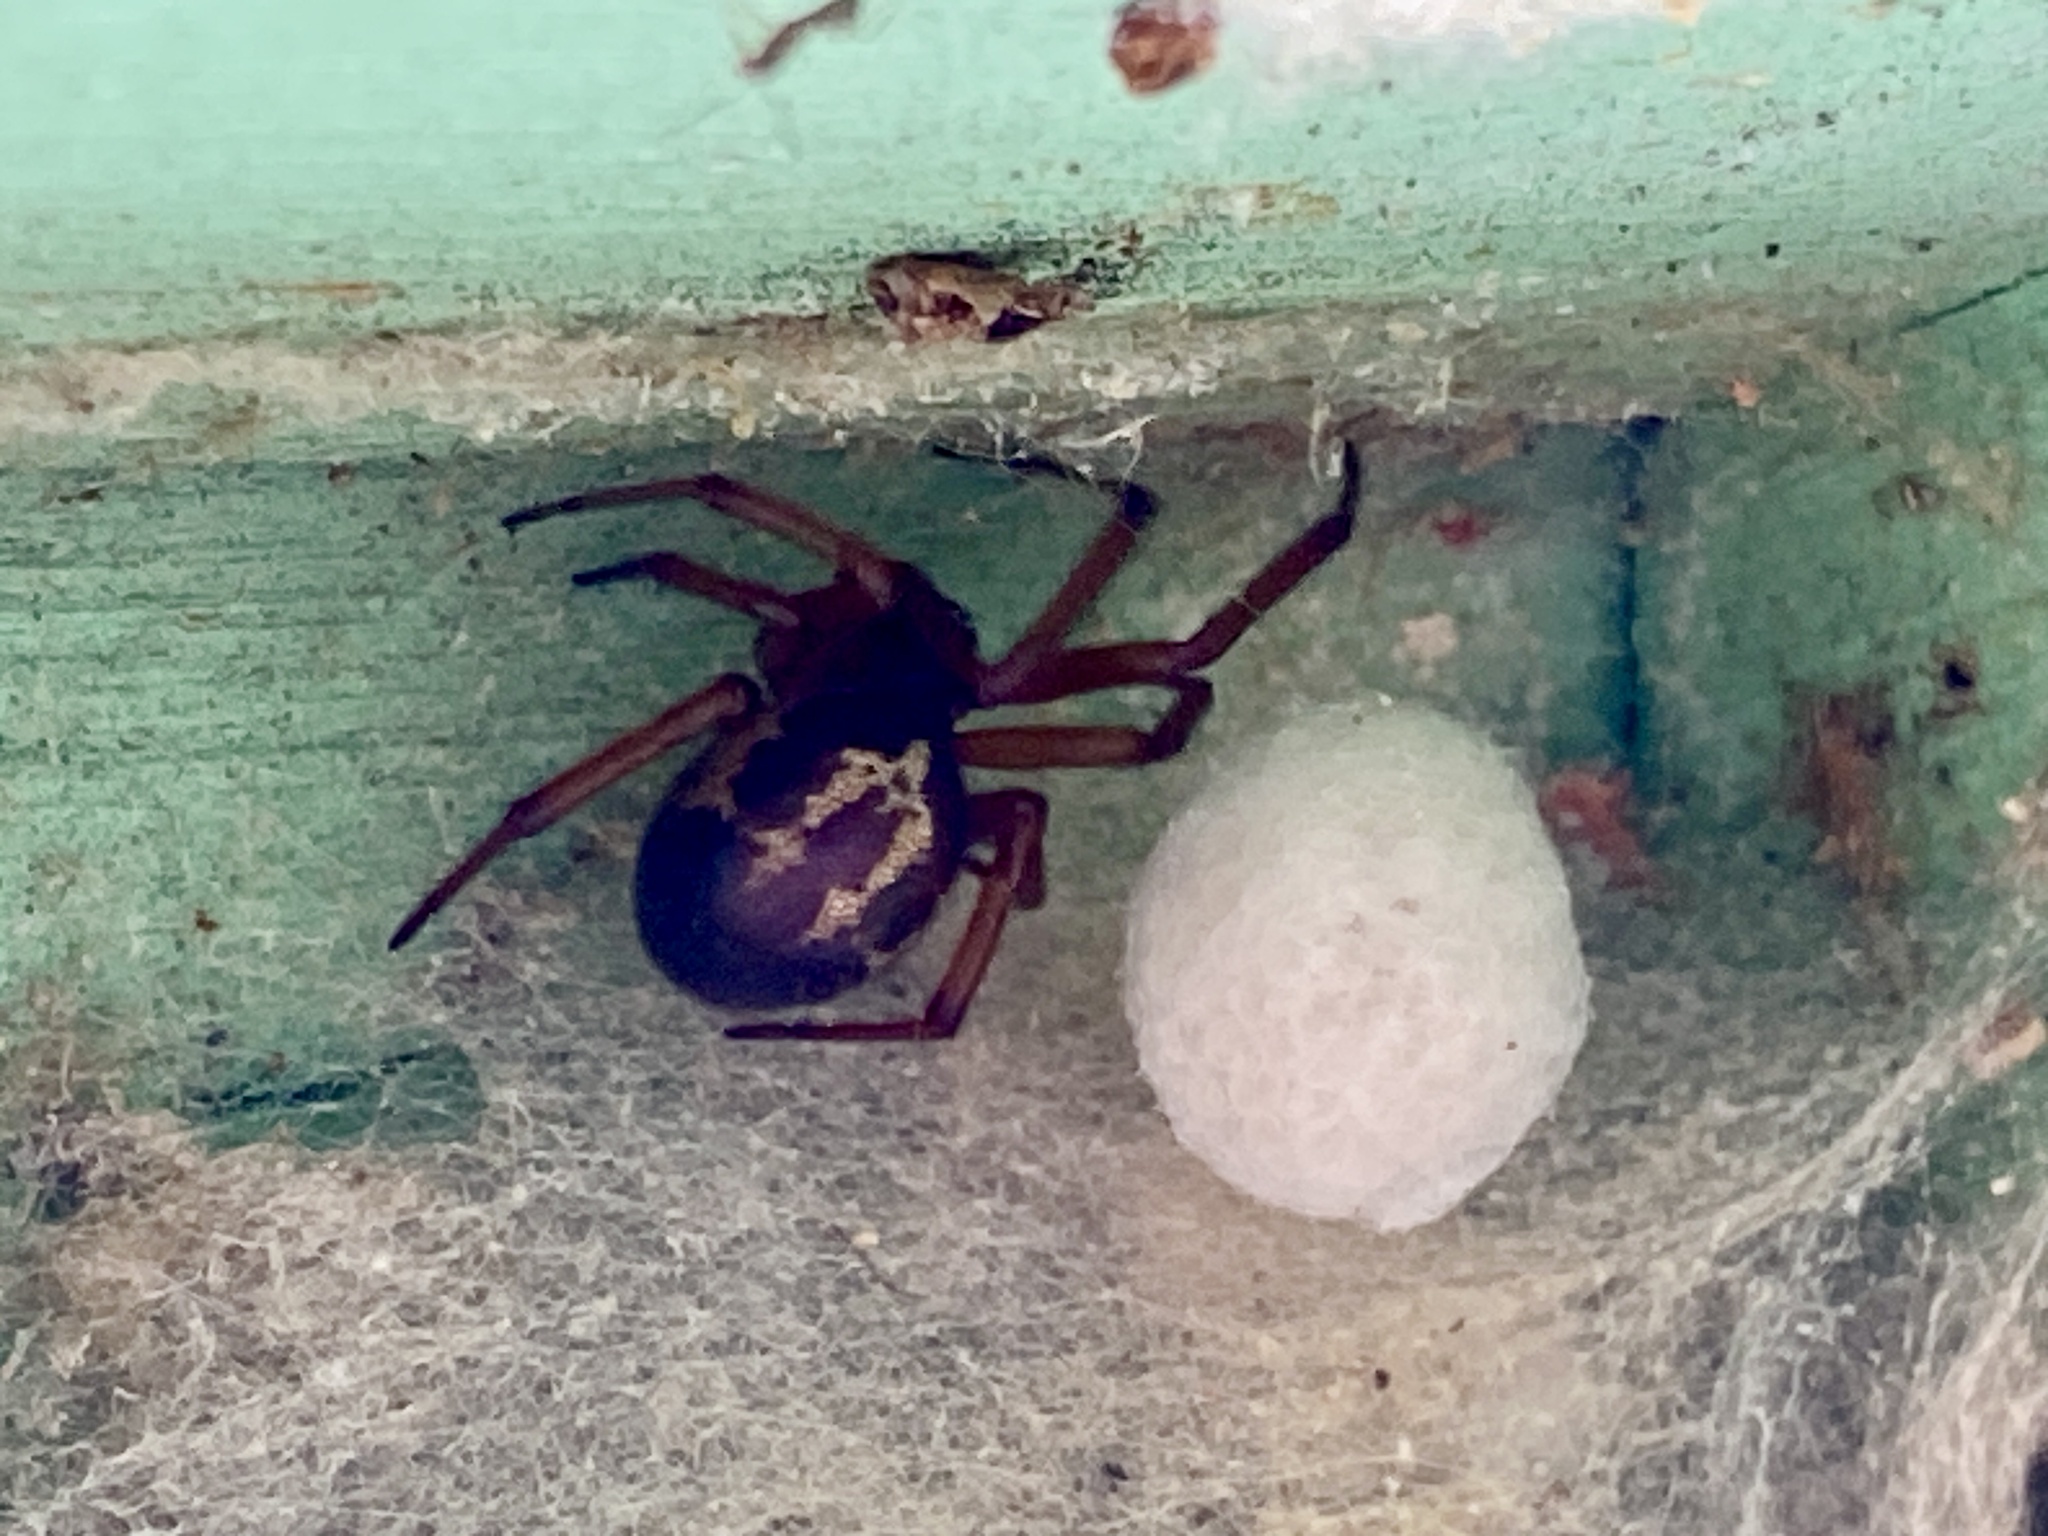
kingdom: Animalia
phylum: Arthropoda
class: Arachnida
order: Araneae
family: Theridiidae
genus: Steatoda
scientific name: Steatoda nobilis
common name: Cobweb weaver
